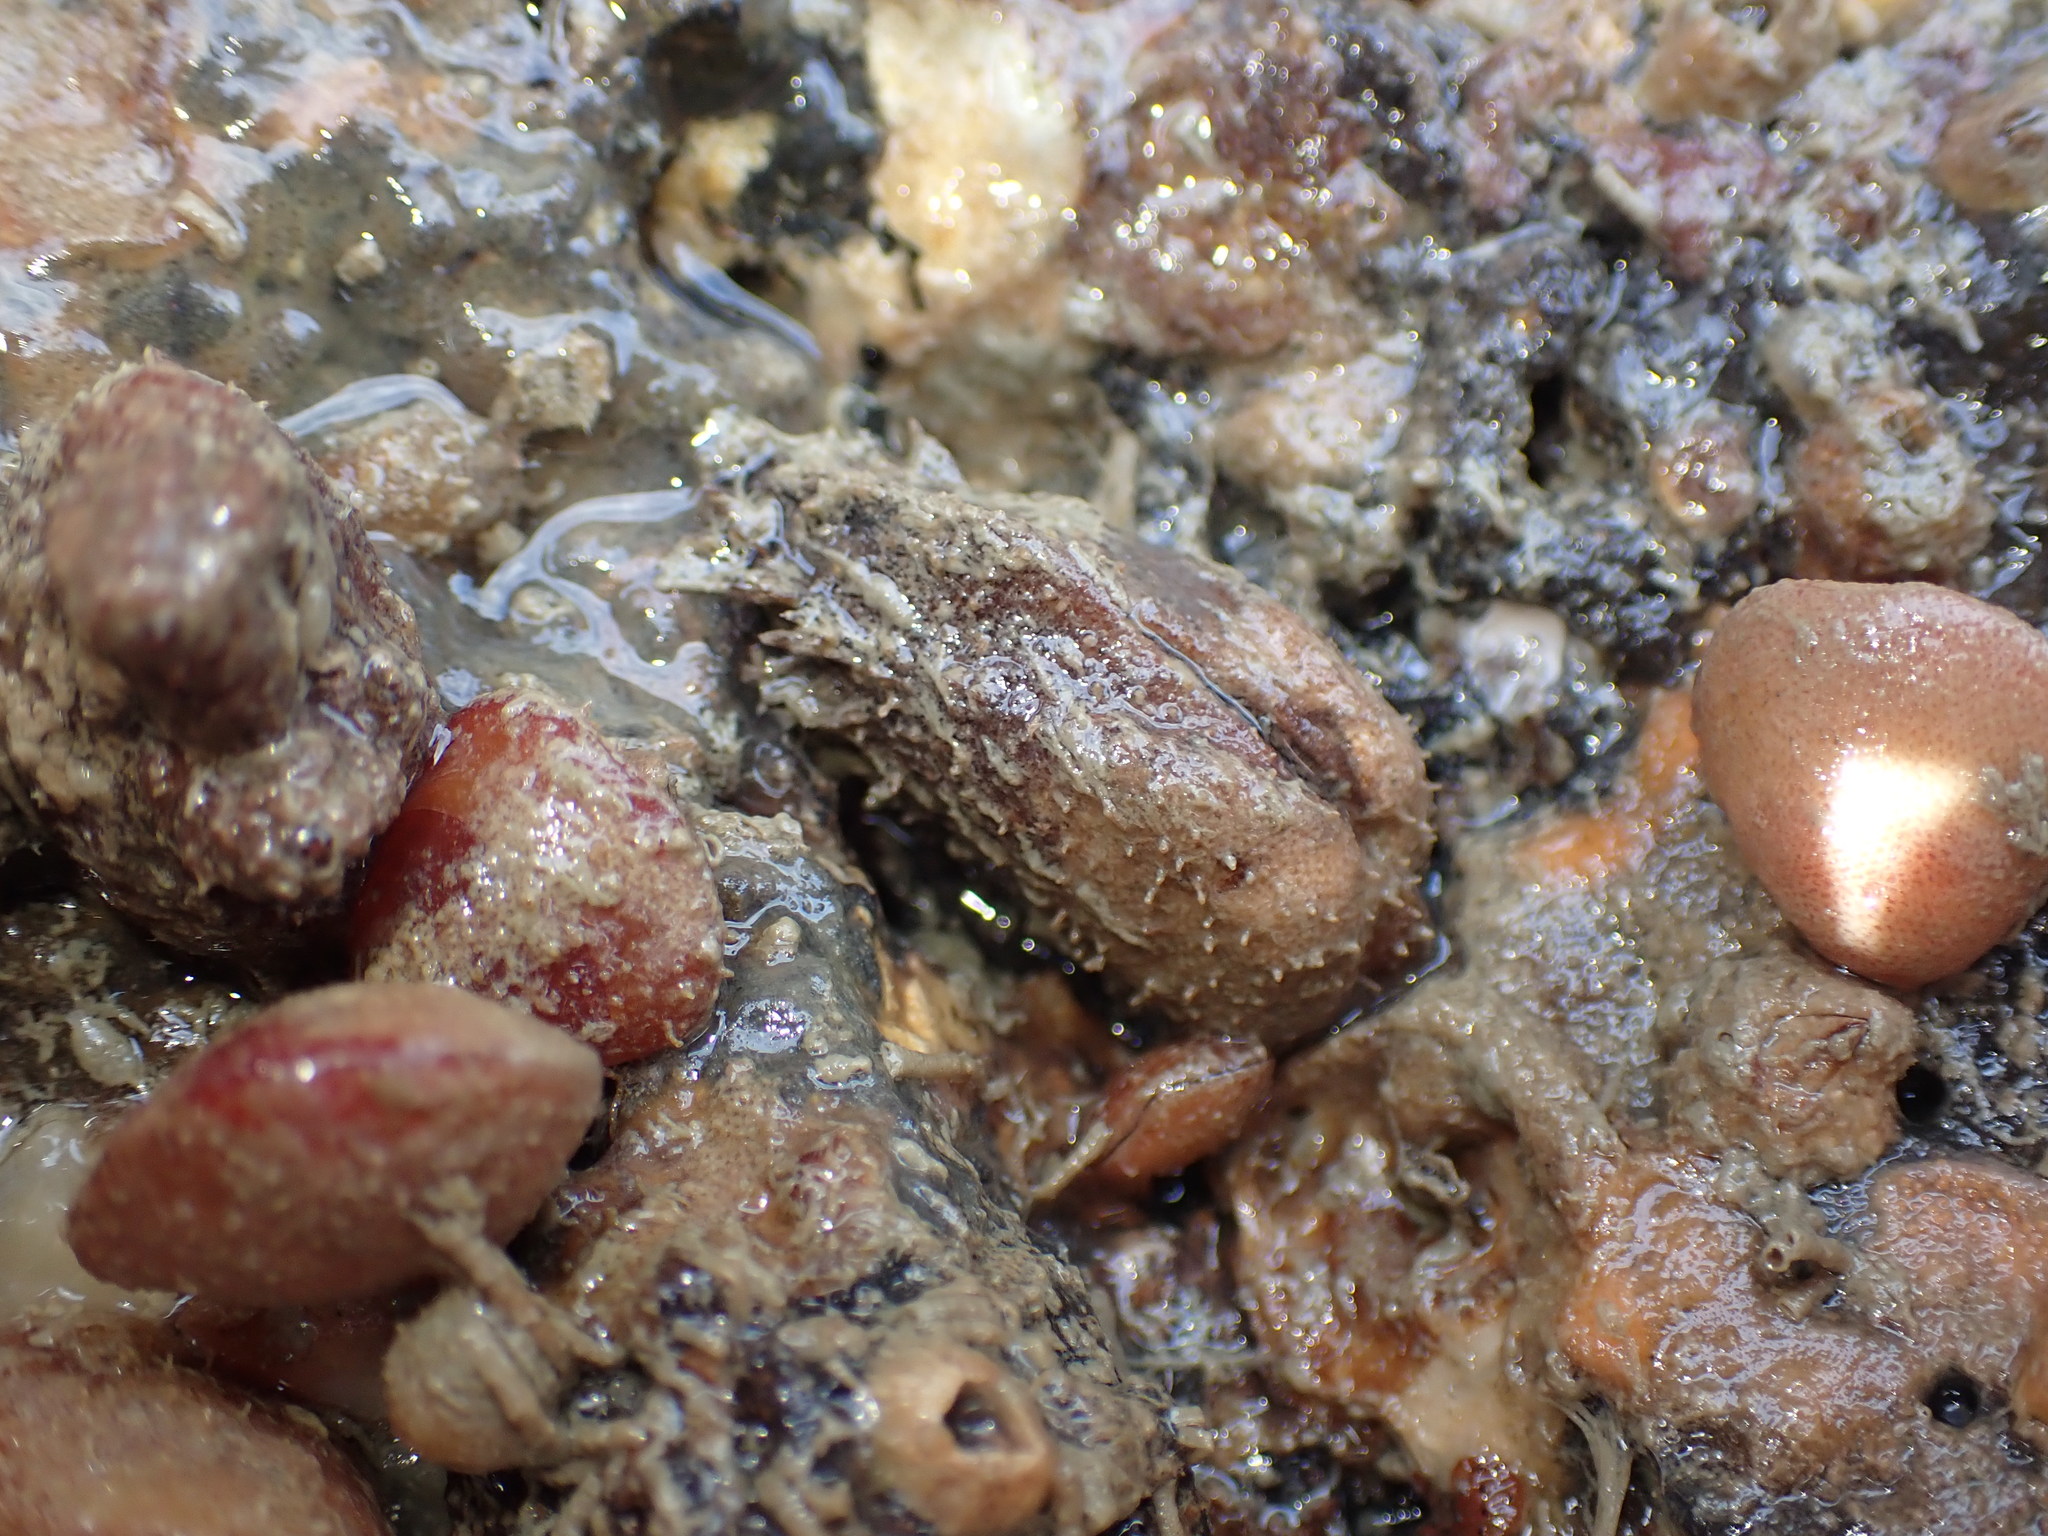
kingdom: Animalia
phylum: Mollusca
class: Bivalvia
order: Arcida
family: Arcidae
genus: Barbatia
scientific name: Barbatia novaezealandiae
